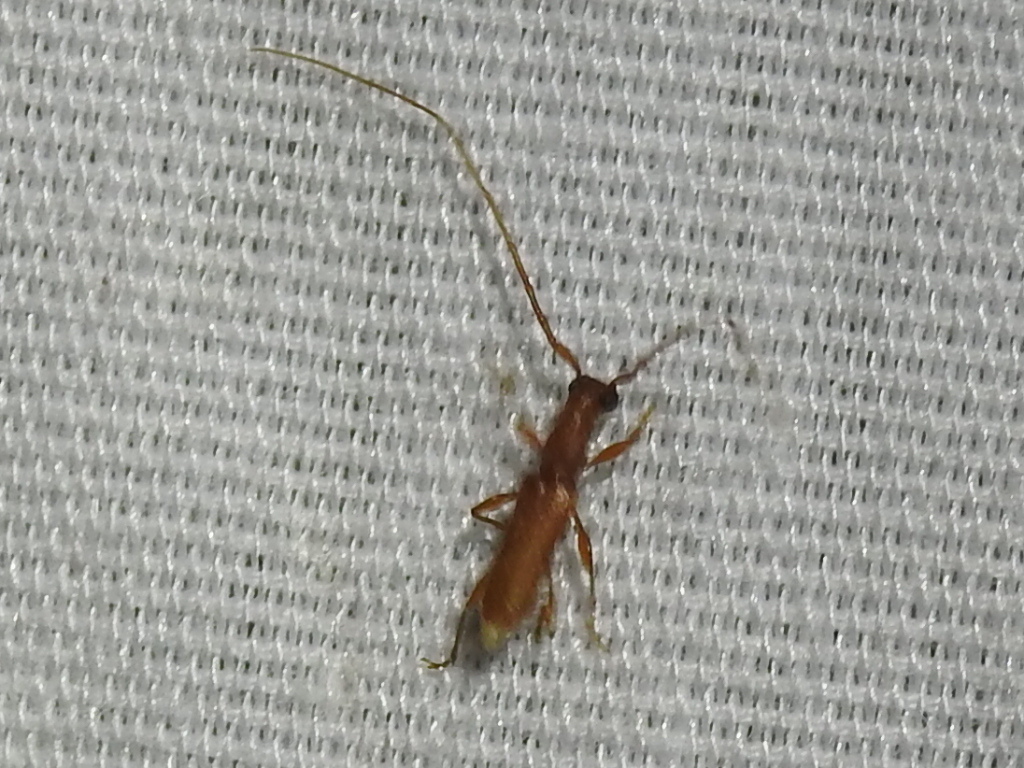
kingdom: Animalia
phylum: Arthropoda
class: Insecta
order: Coleoptera
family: Cerambycidae
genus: Hypexilis
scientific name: Hypexilis pallida
